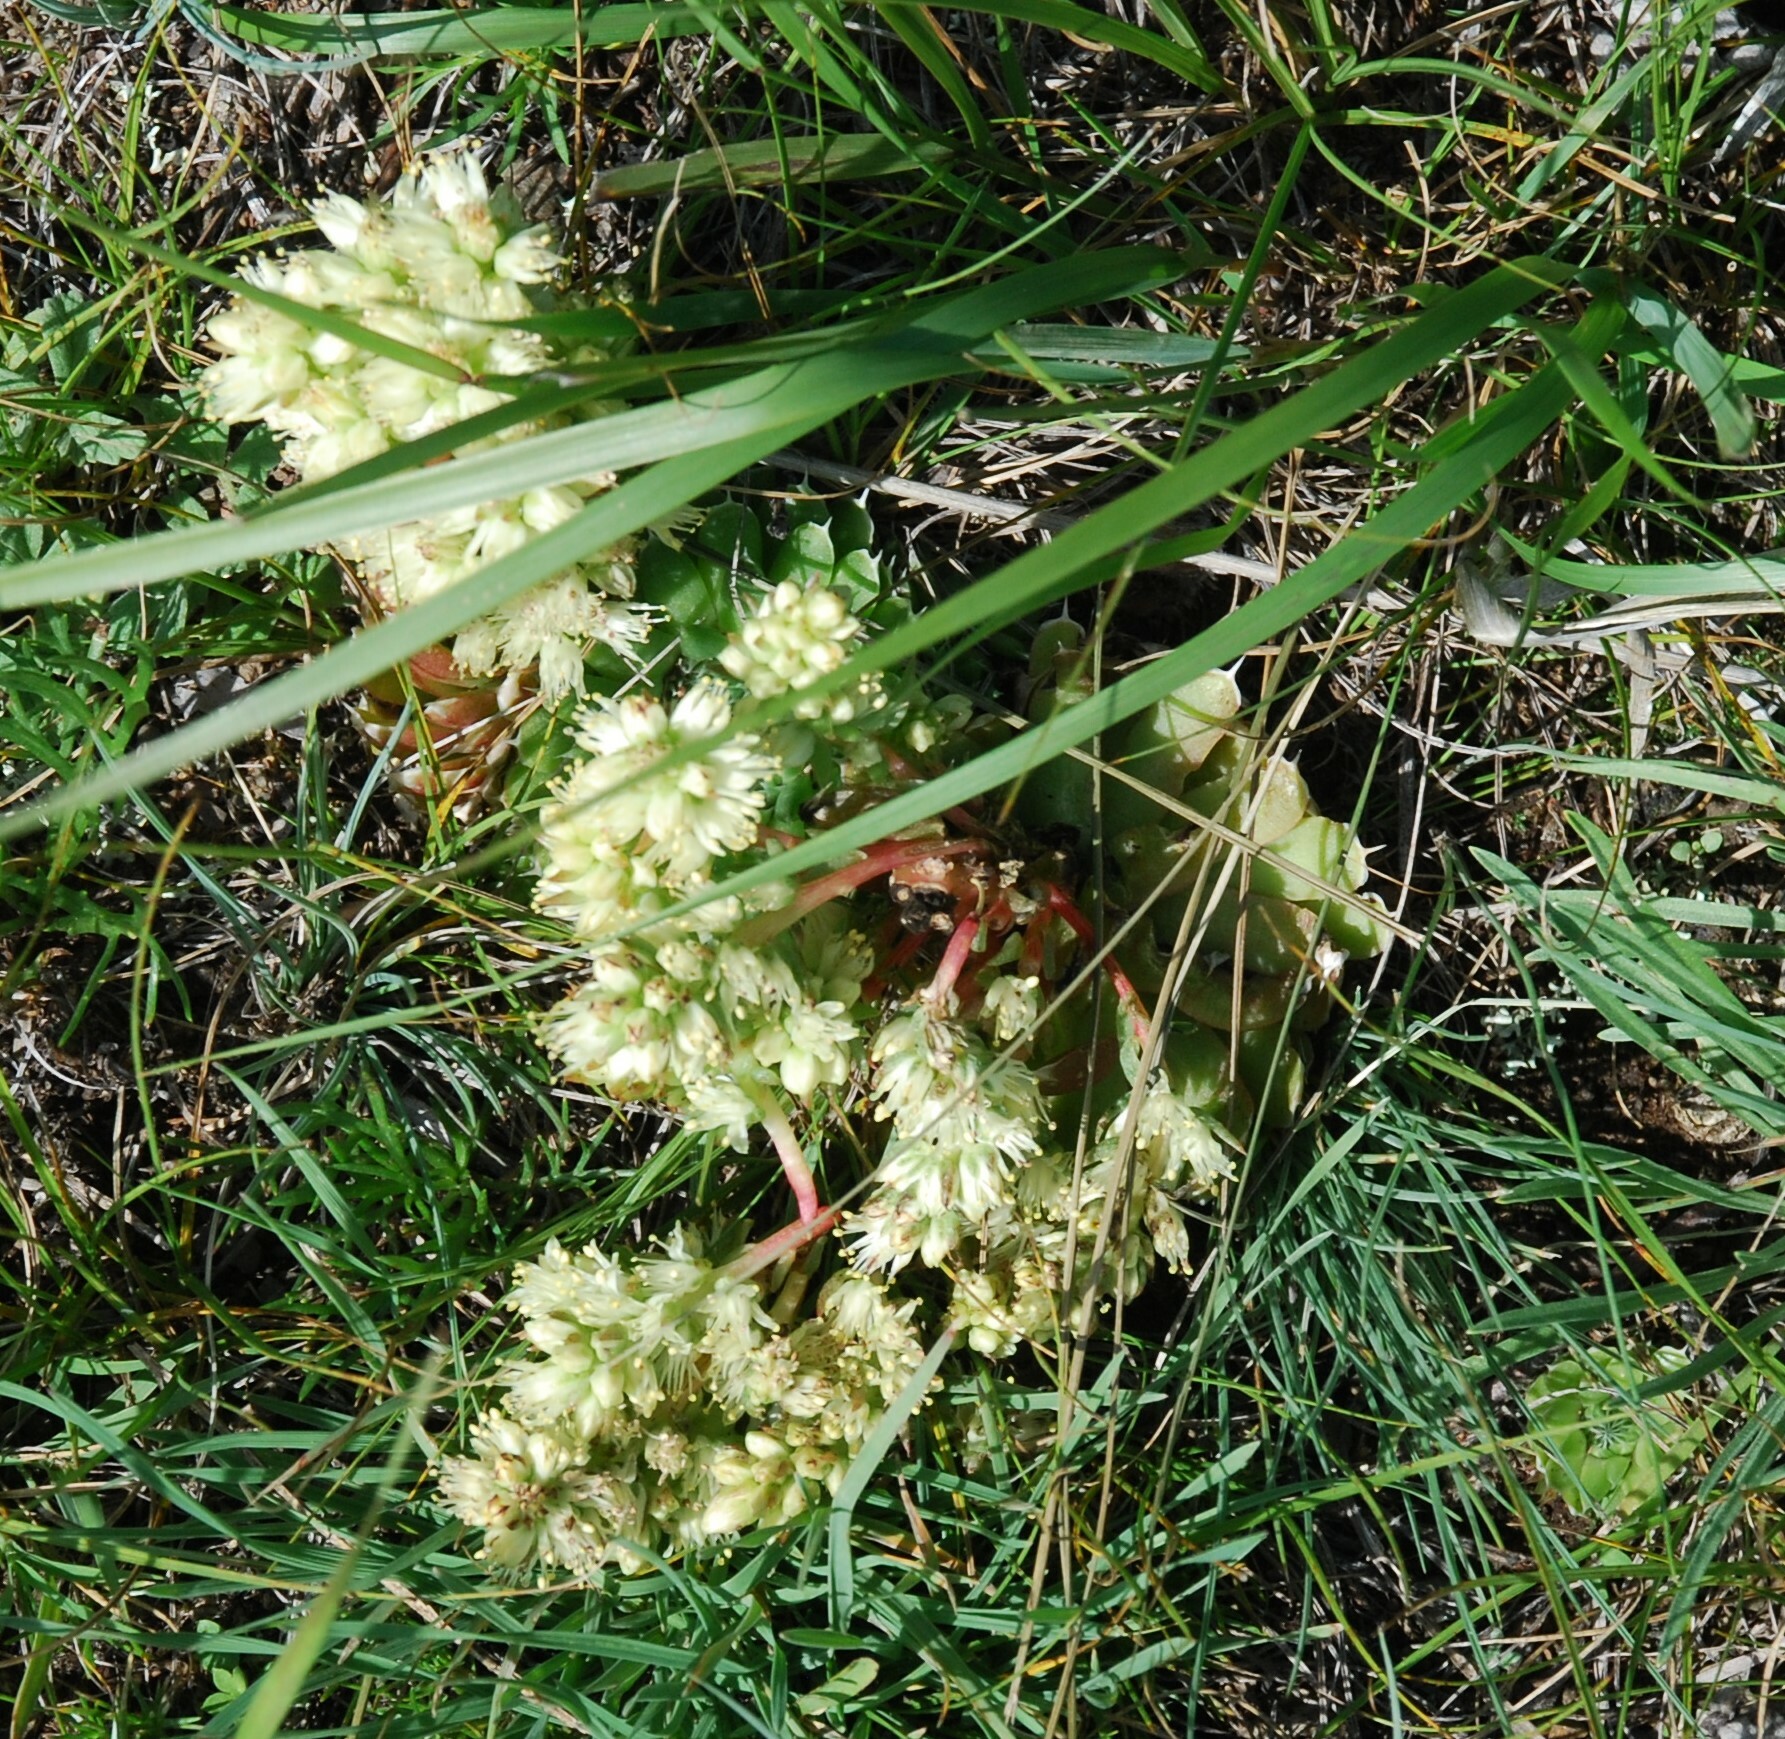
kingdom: Plantae
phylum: Tracheophyta
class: Magnoliopsida
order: Saxifragales
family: Crassulaceae
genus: Orostachys
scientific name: Orostachys spinosa
